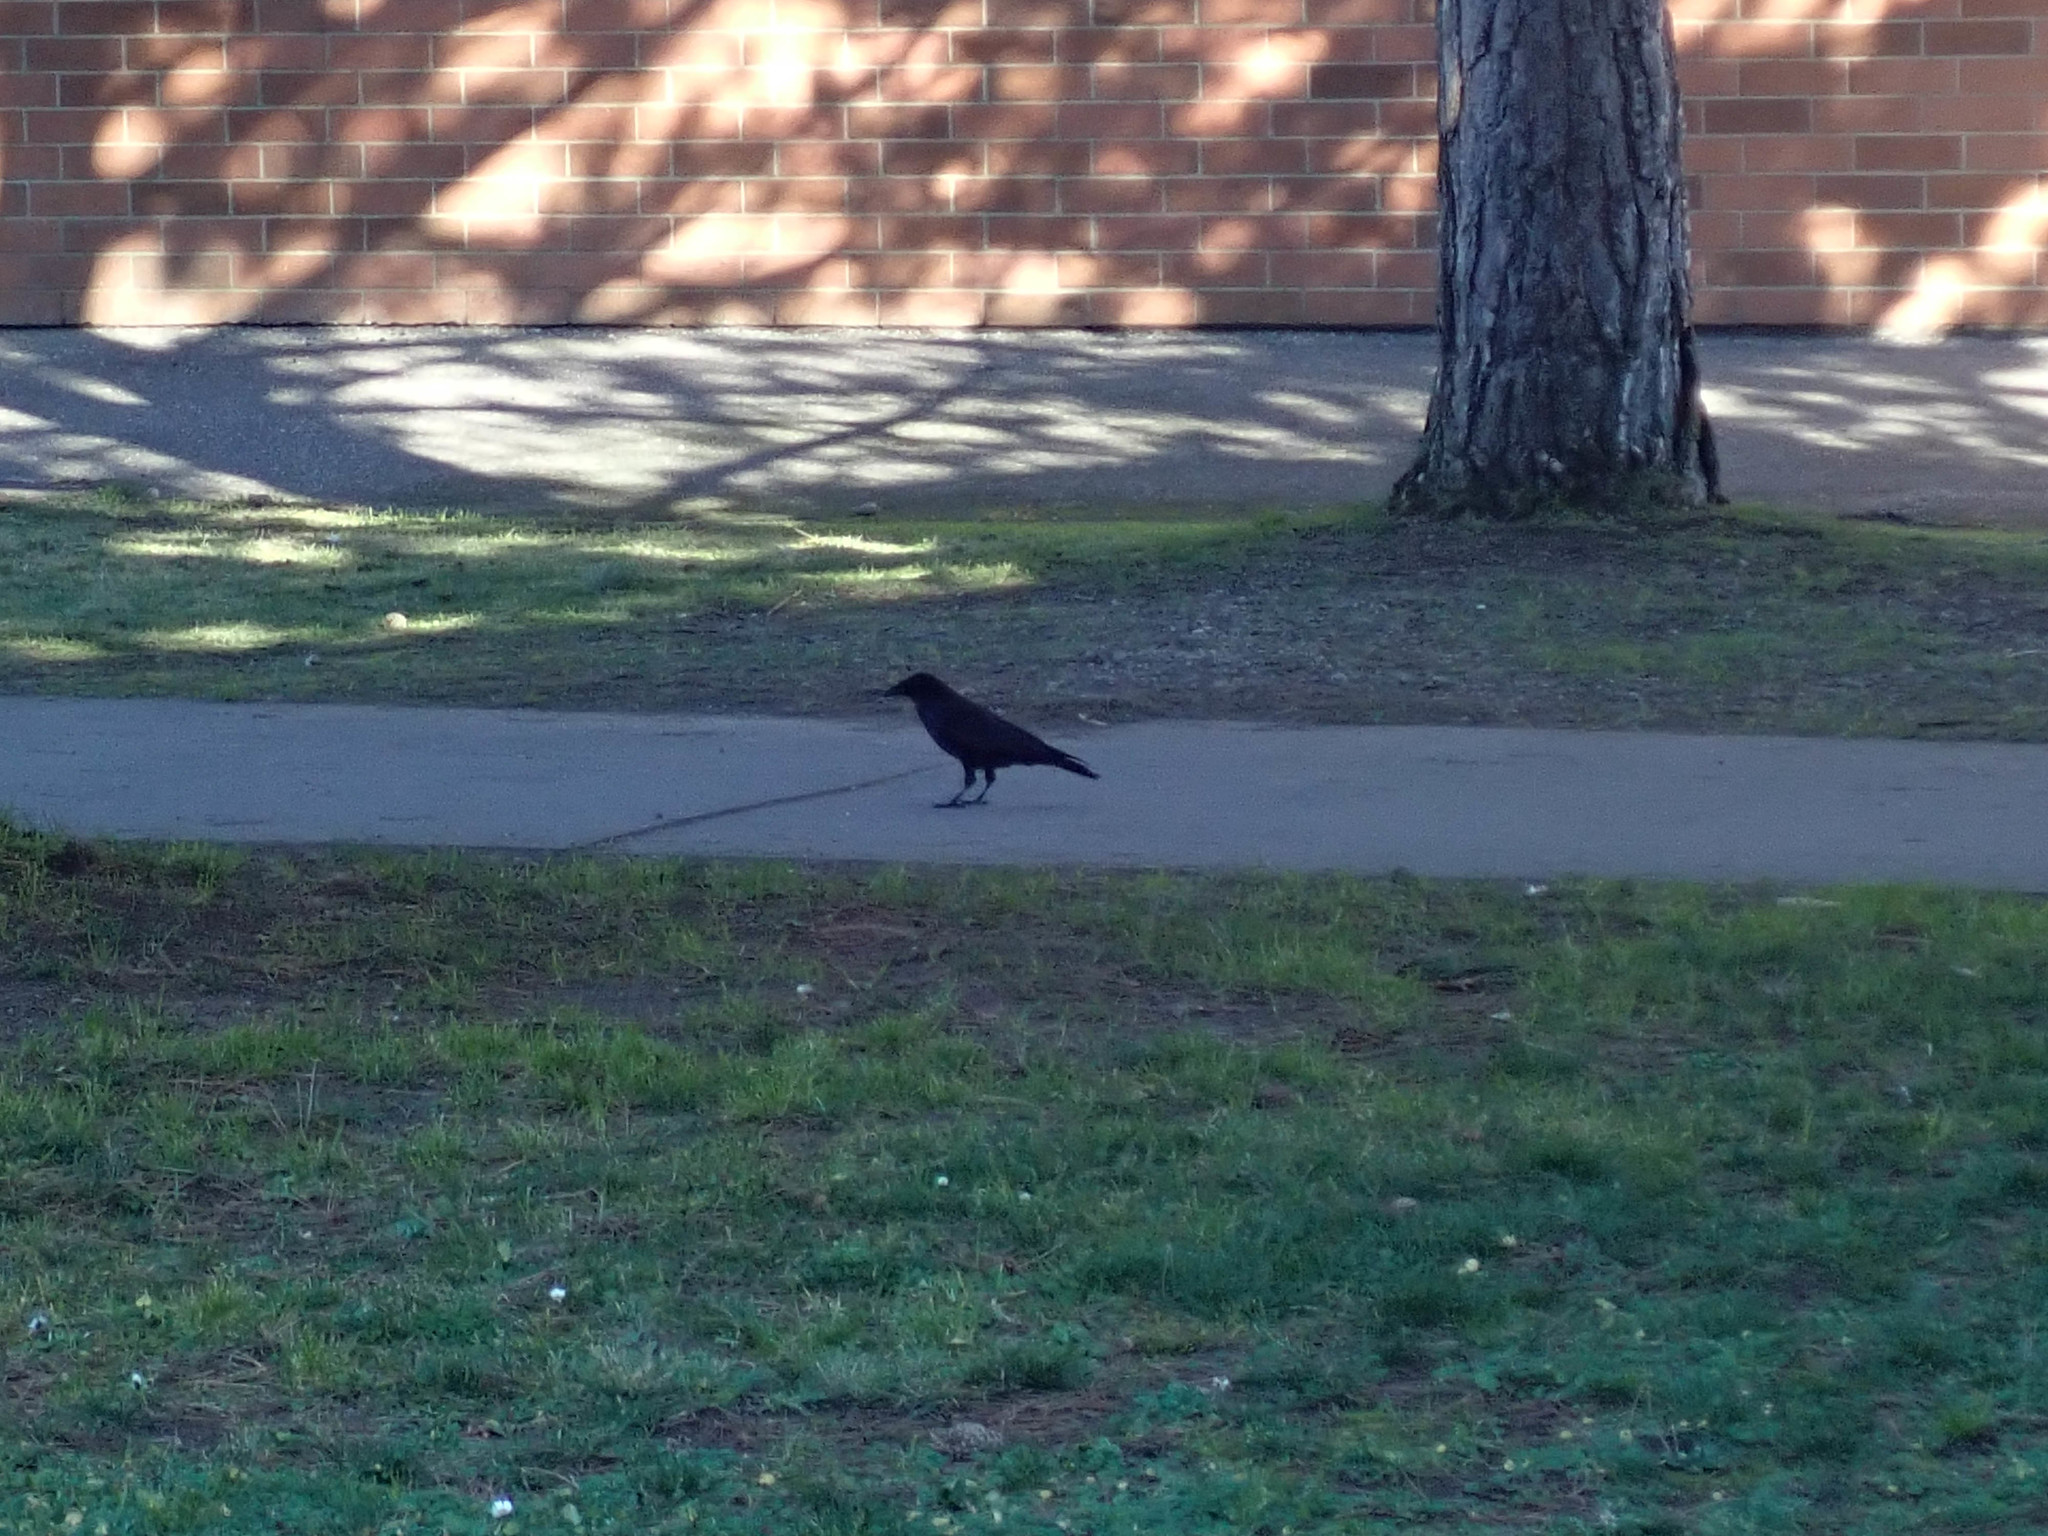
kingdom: Animalia
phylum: Chordata
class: Aves
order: Passeriformes
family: Corvidae
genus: Corvus
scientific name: Corvus brachyrhynchos
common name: American crow
